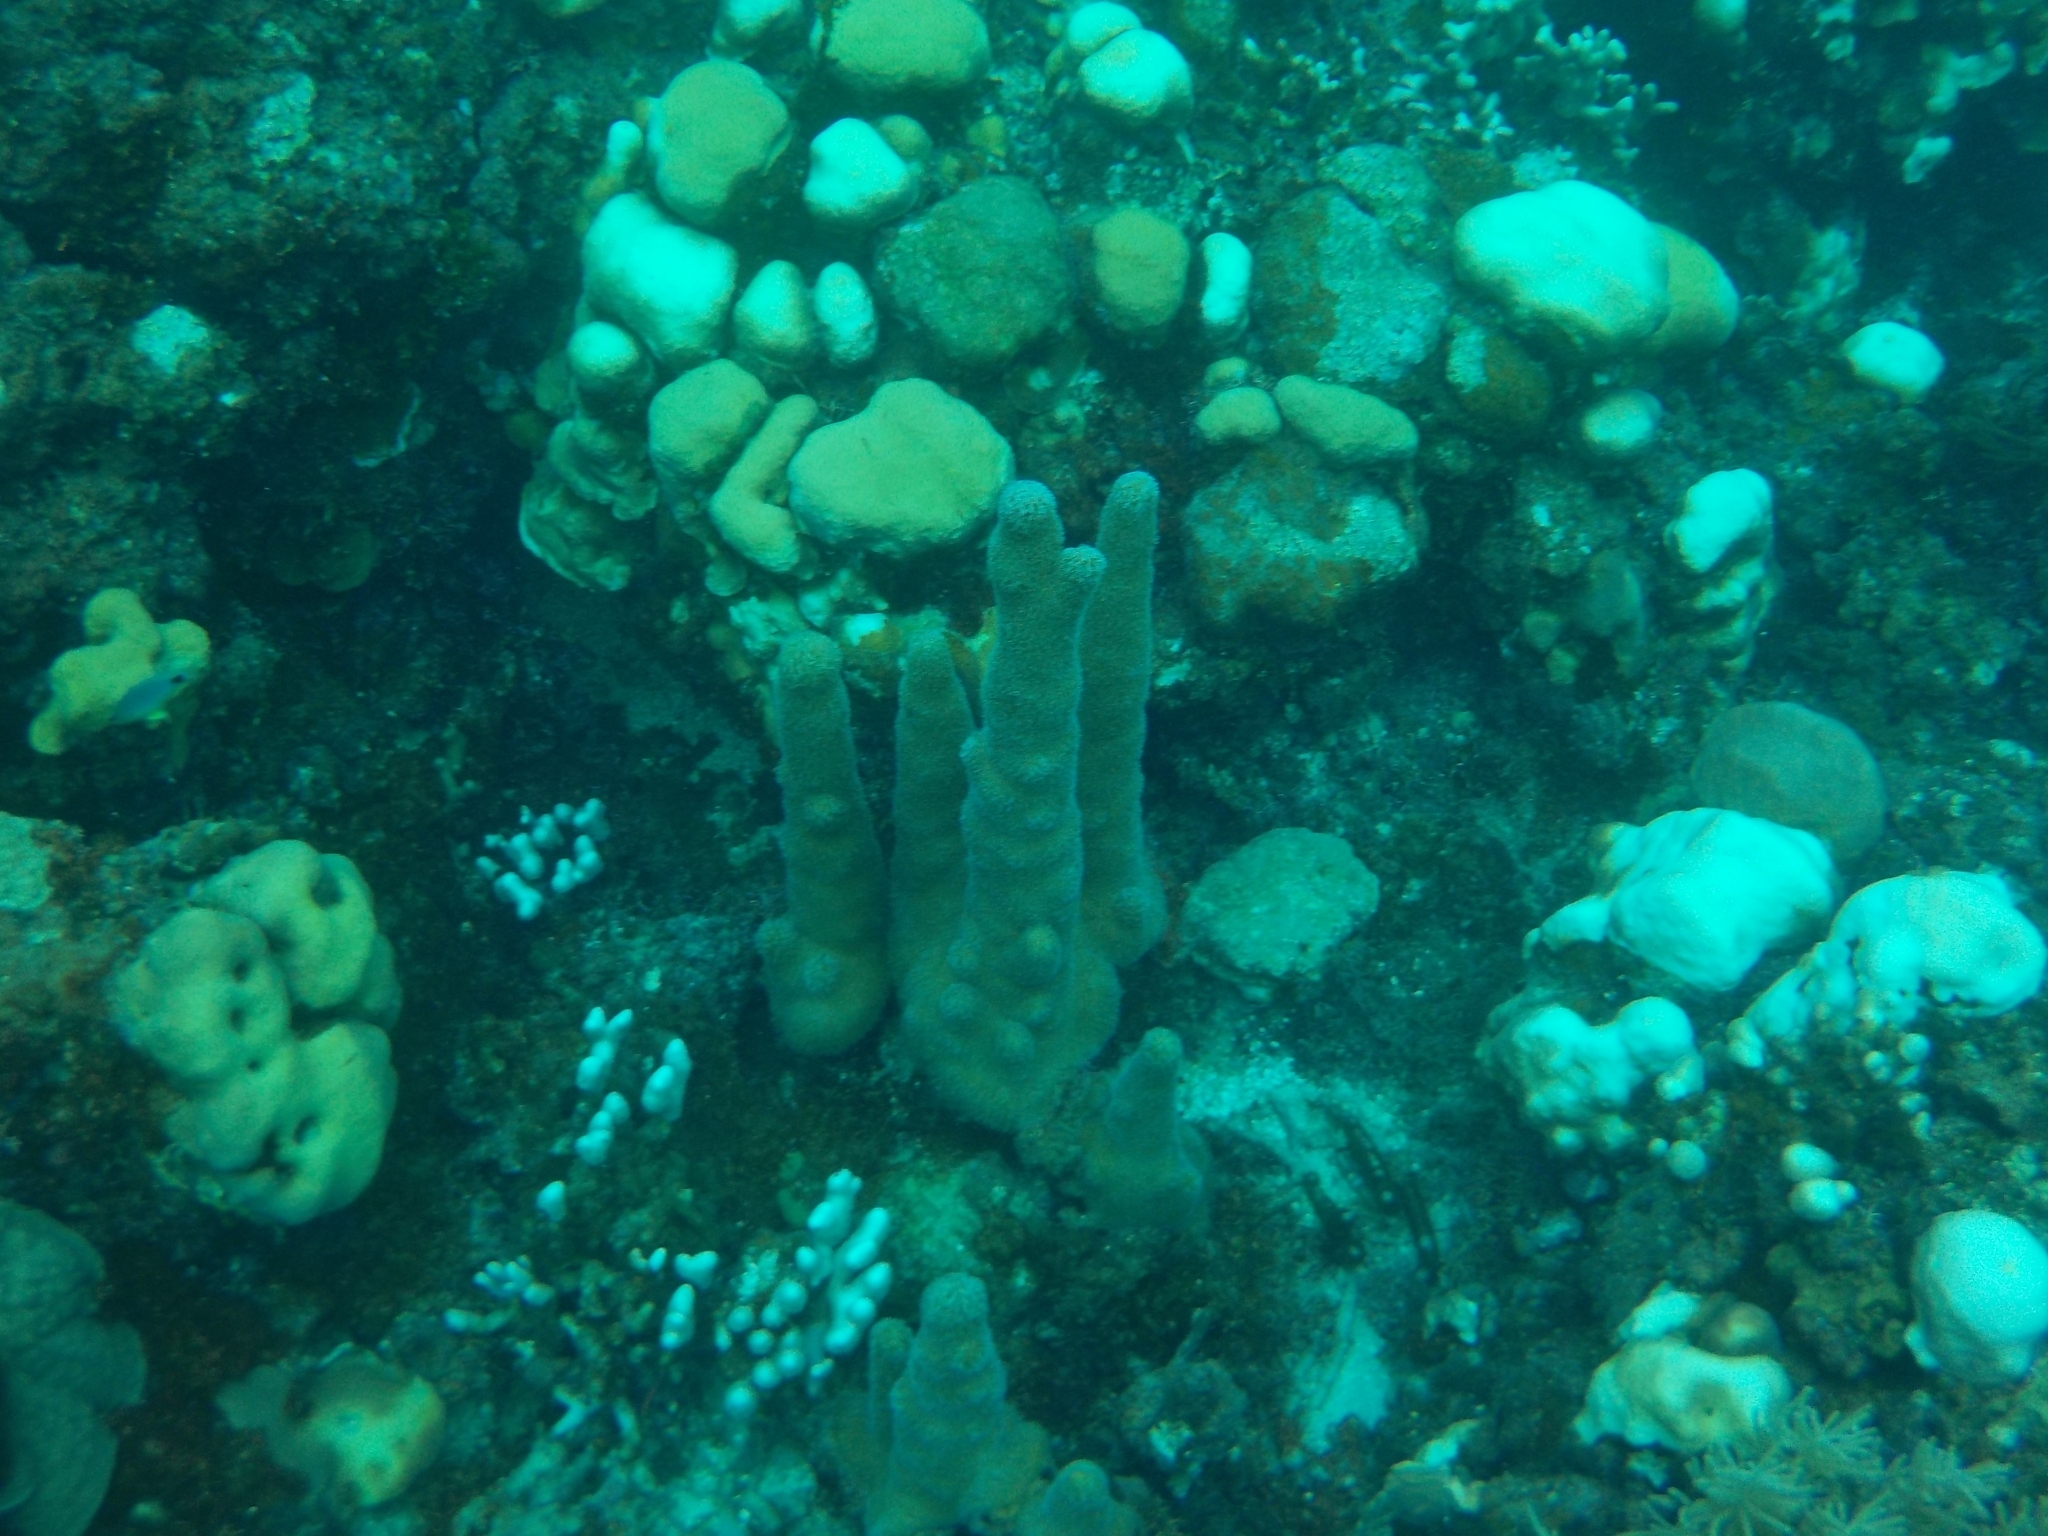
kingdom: Animalia
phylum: Cnidaria
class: Anthozoa
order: Scleractinia
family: Meandrinidae
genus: Dendrogyra
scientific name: Dendrogyra cylindrus
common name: Pillar coral
